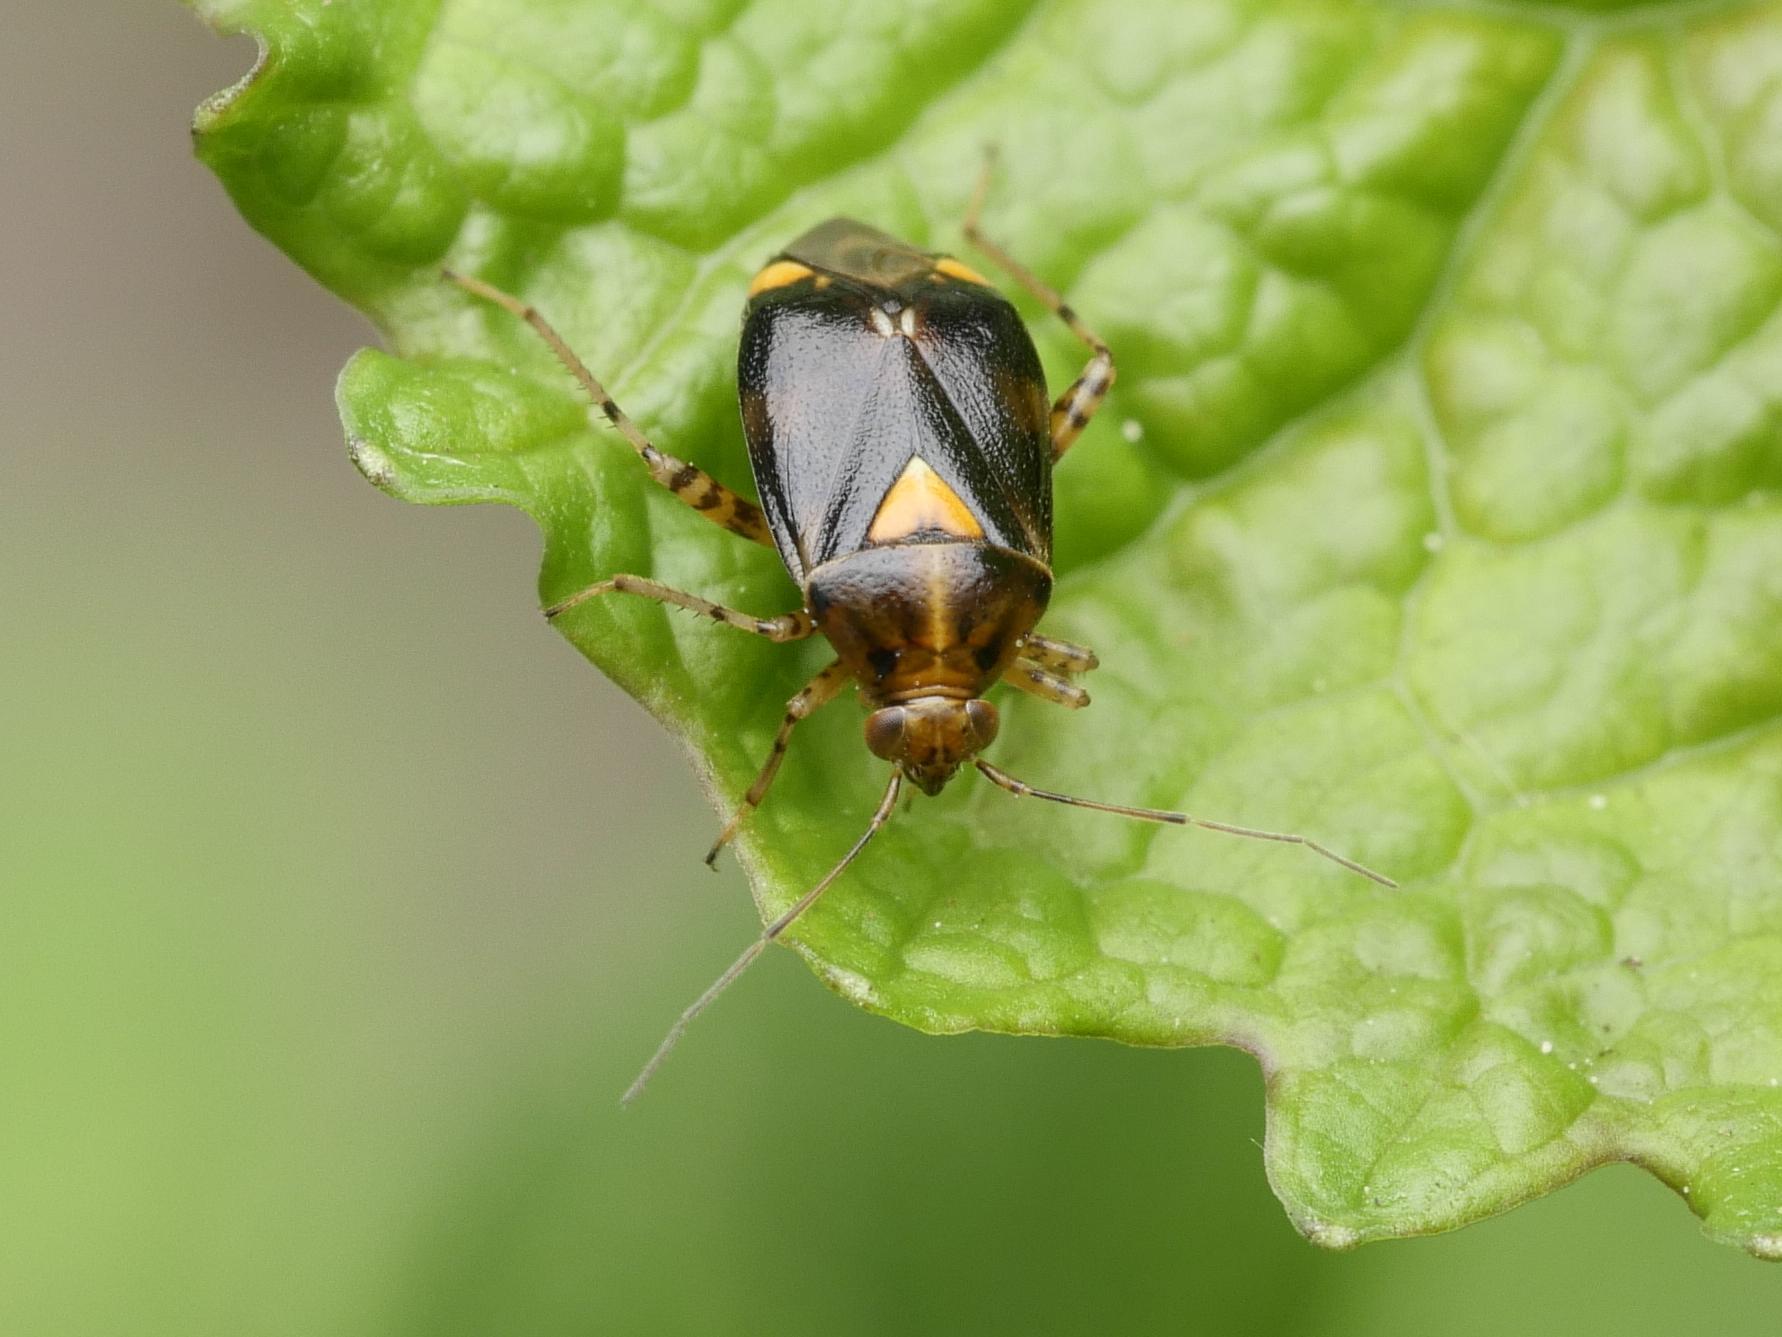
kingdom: Animalia
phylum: Arthropoda
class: Insecta
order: Hemiptera
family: Miridae
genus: Liocoris
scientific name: Liocoris tripustulatus
